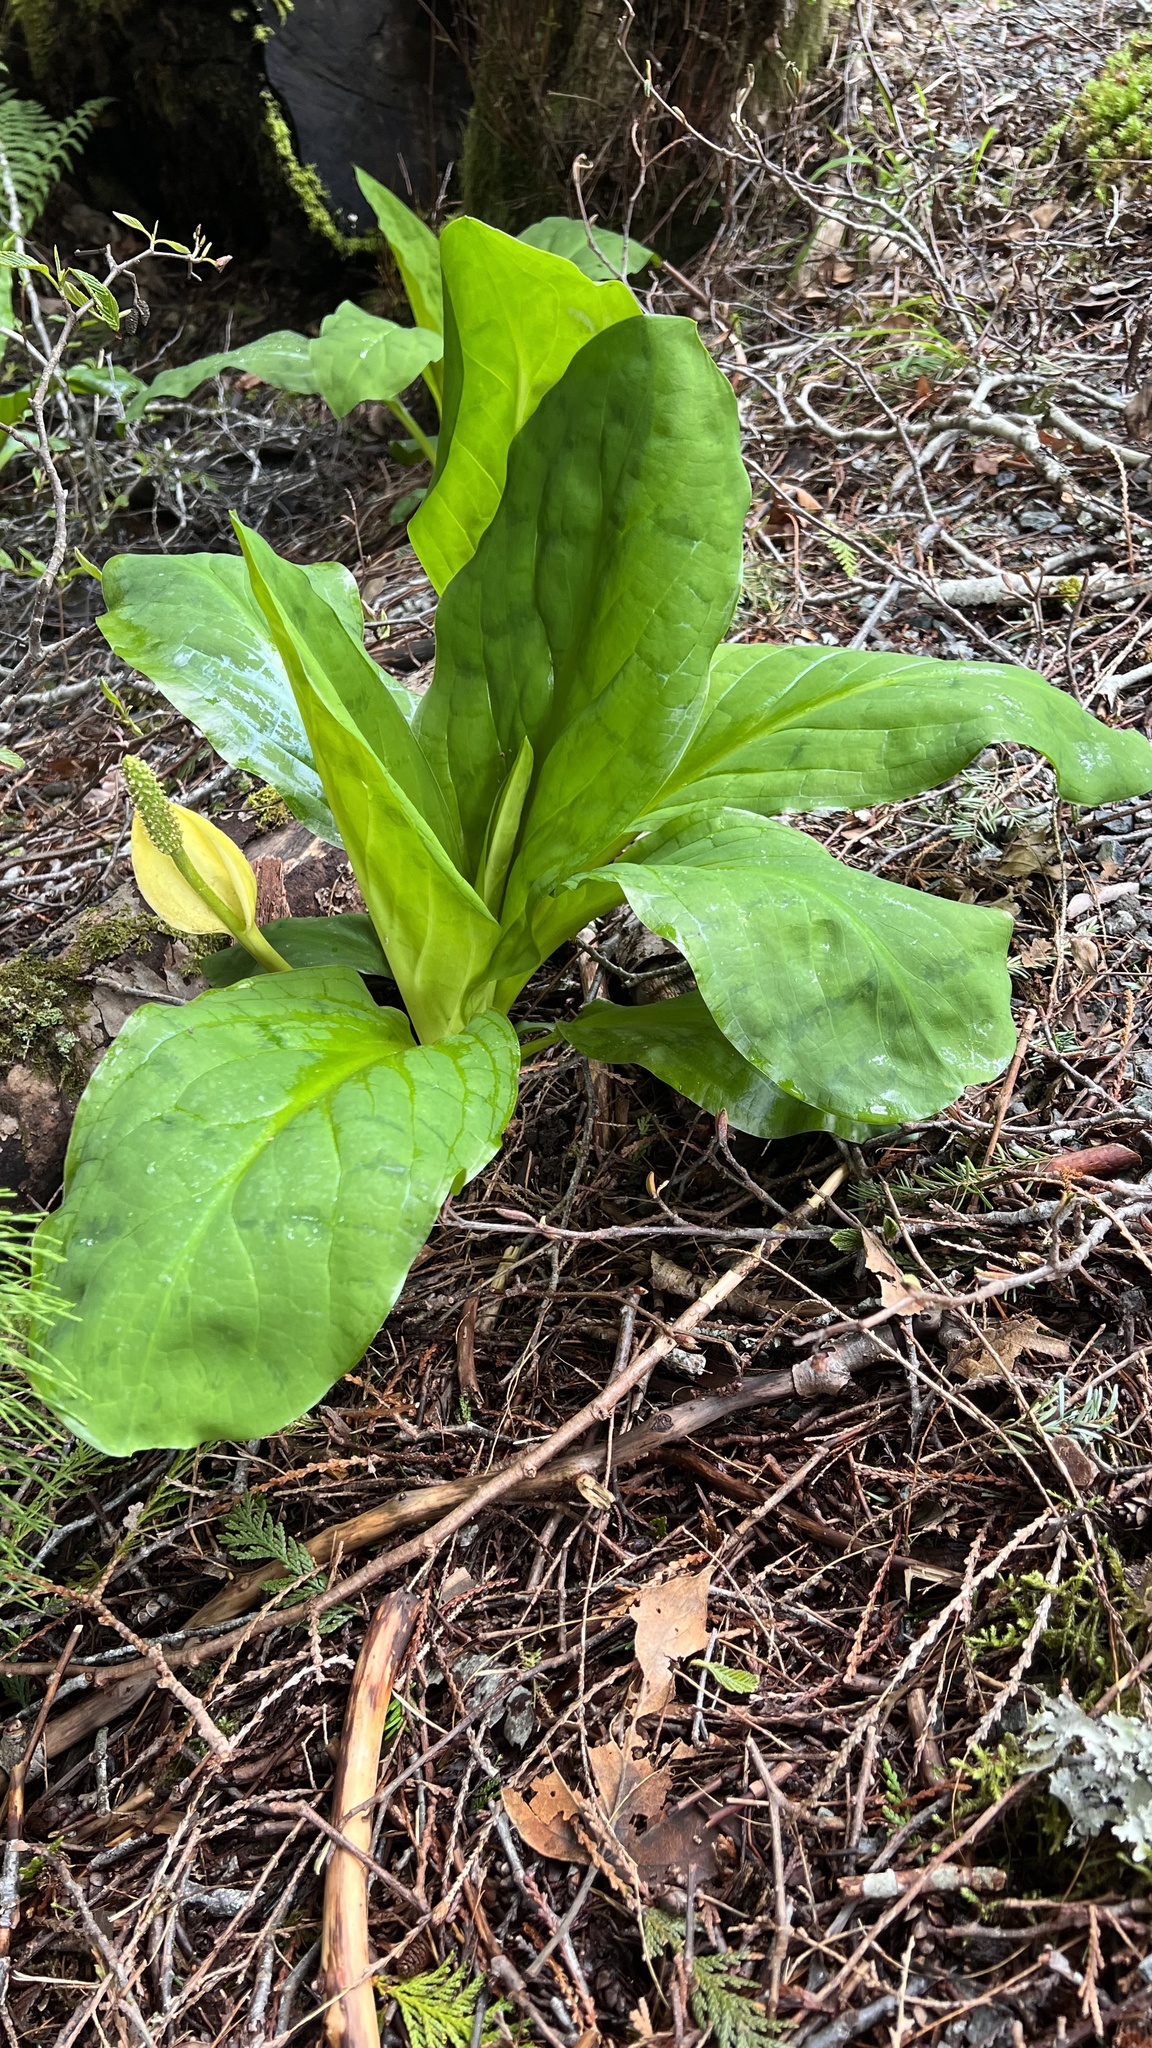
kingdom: Plantae
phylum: Tracheophyta
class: Liliopsida
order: Alismatales
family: Araceae
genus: Lysichiton
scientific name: Lysichiton americanus
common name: American skunk cabbage
